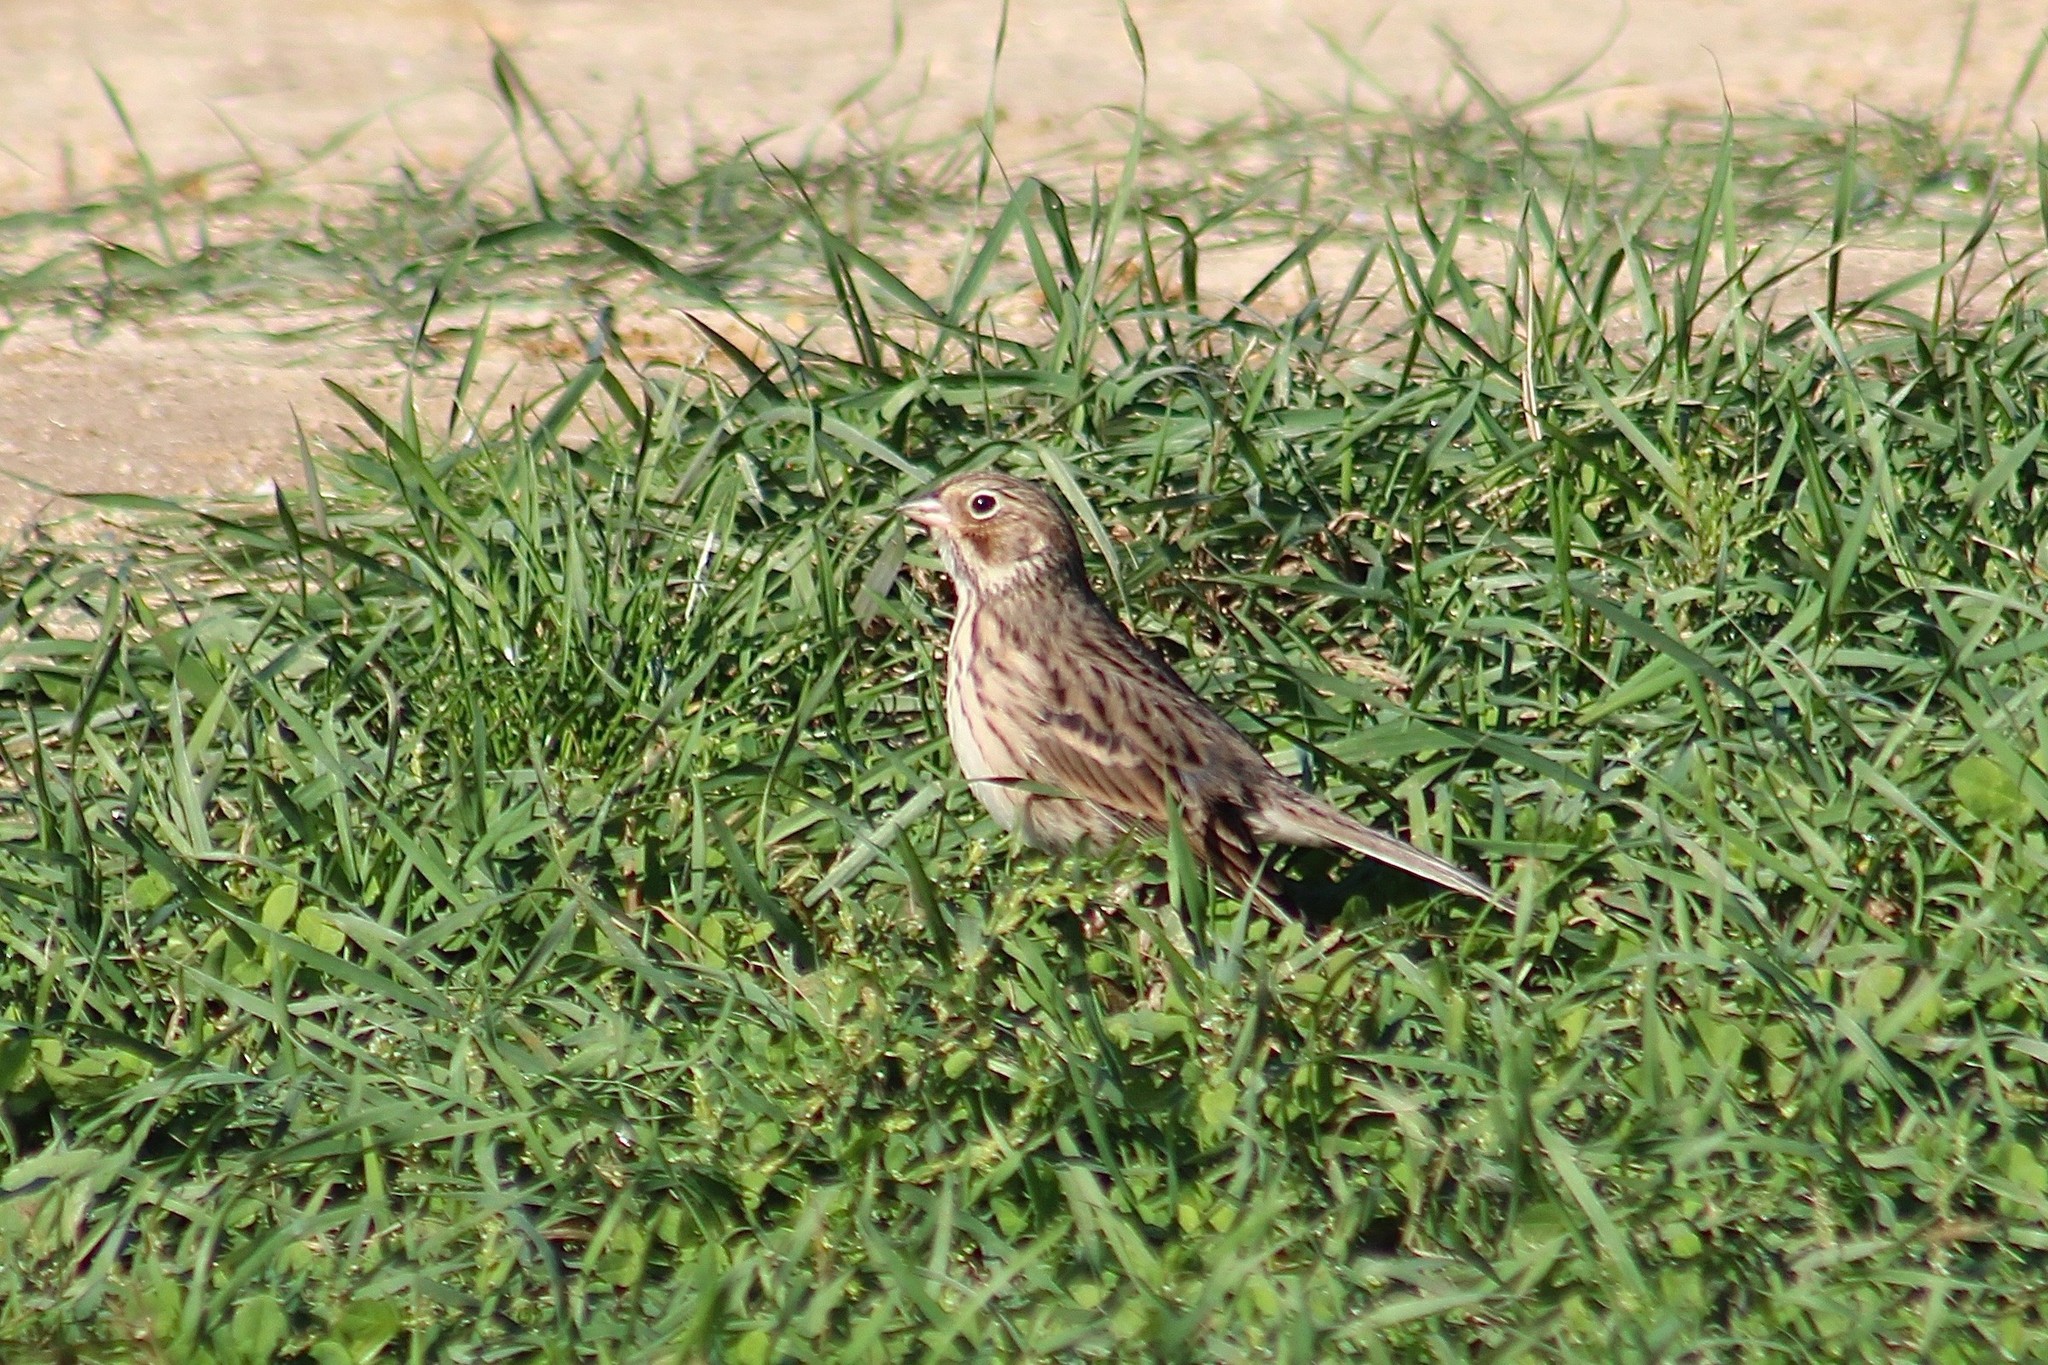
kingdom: Animalia
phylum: Chordata
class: Aves
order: Passeriformes
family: Passerellidae
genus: Pooecetes
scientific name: Pooecetes gramineus
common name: Vesper sparrow
